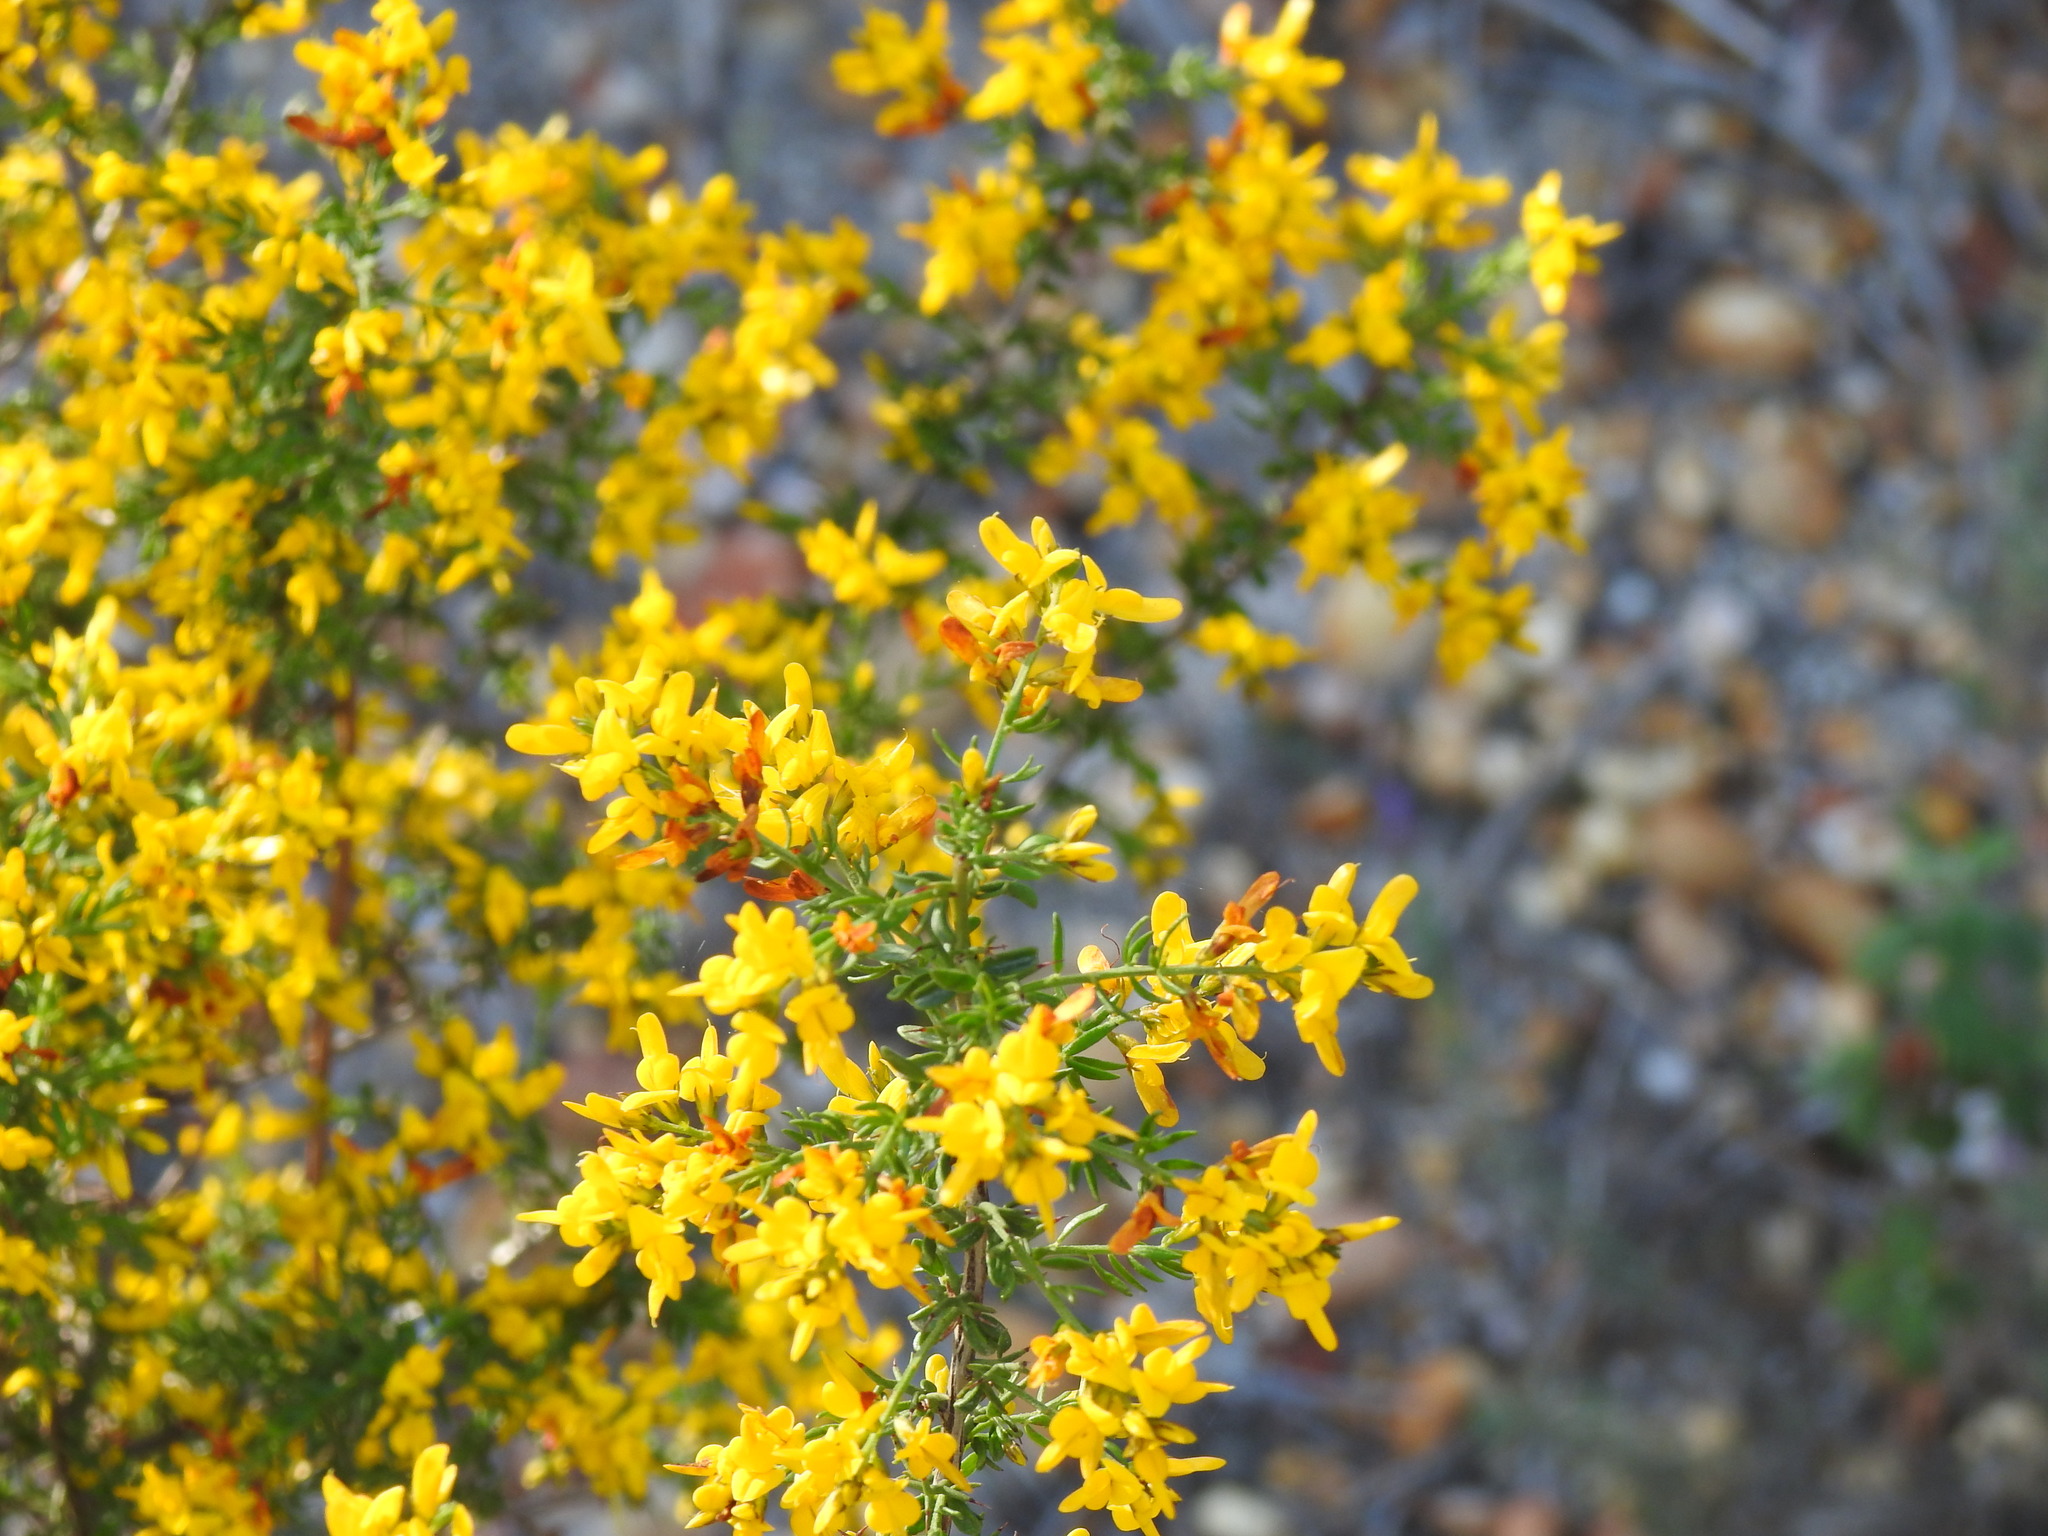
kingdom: Plantae
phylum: Tracheophyta
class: Magnoliopsida
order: Fabales
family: Fabaceae
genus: Genista
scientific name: Genista triacanthos
